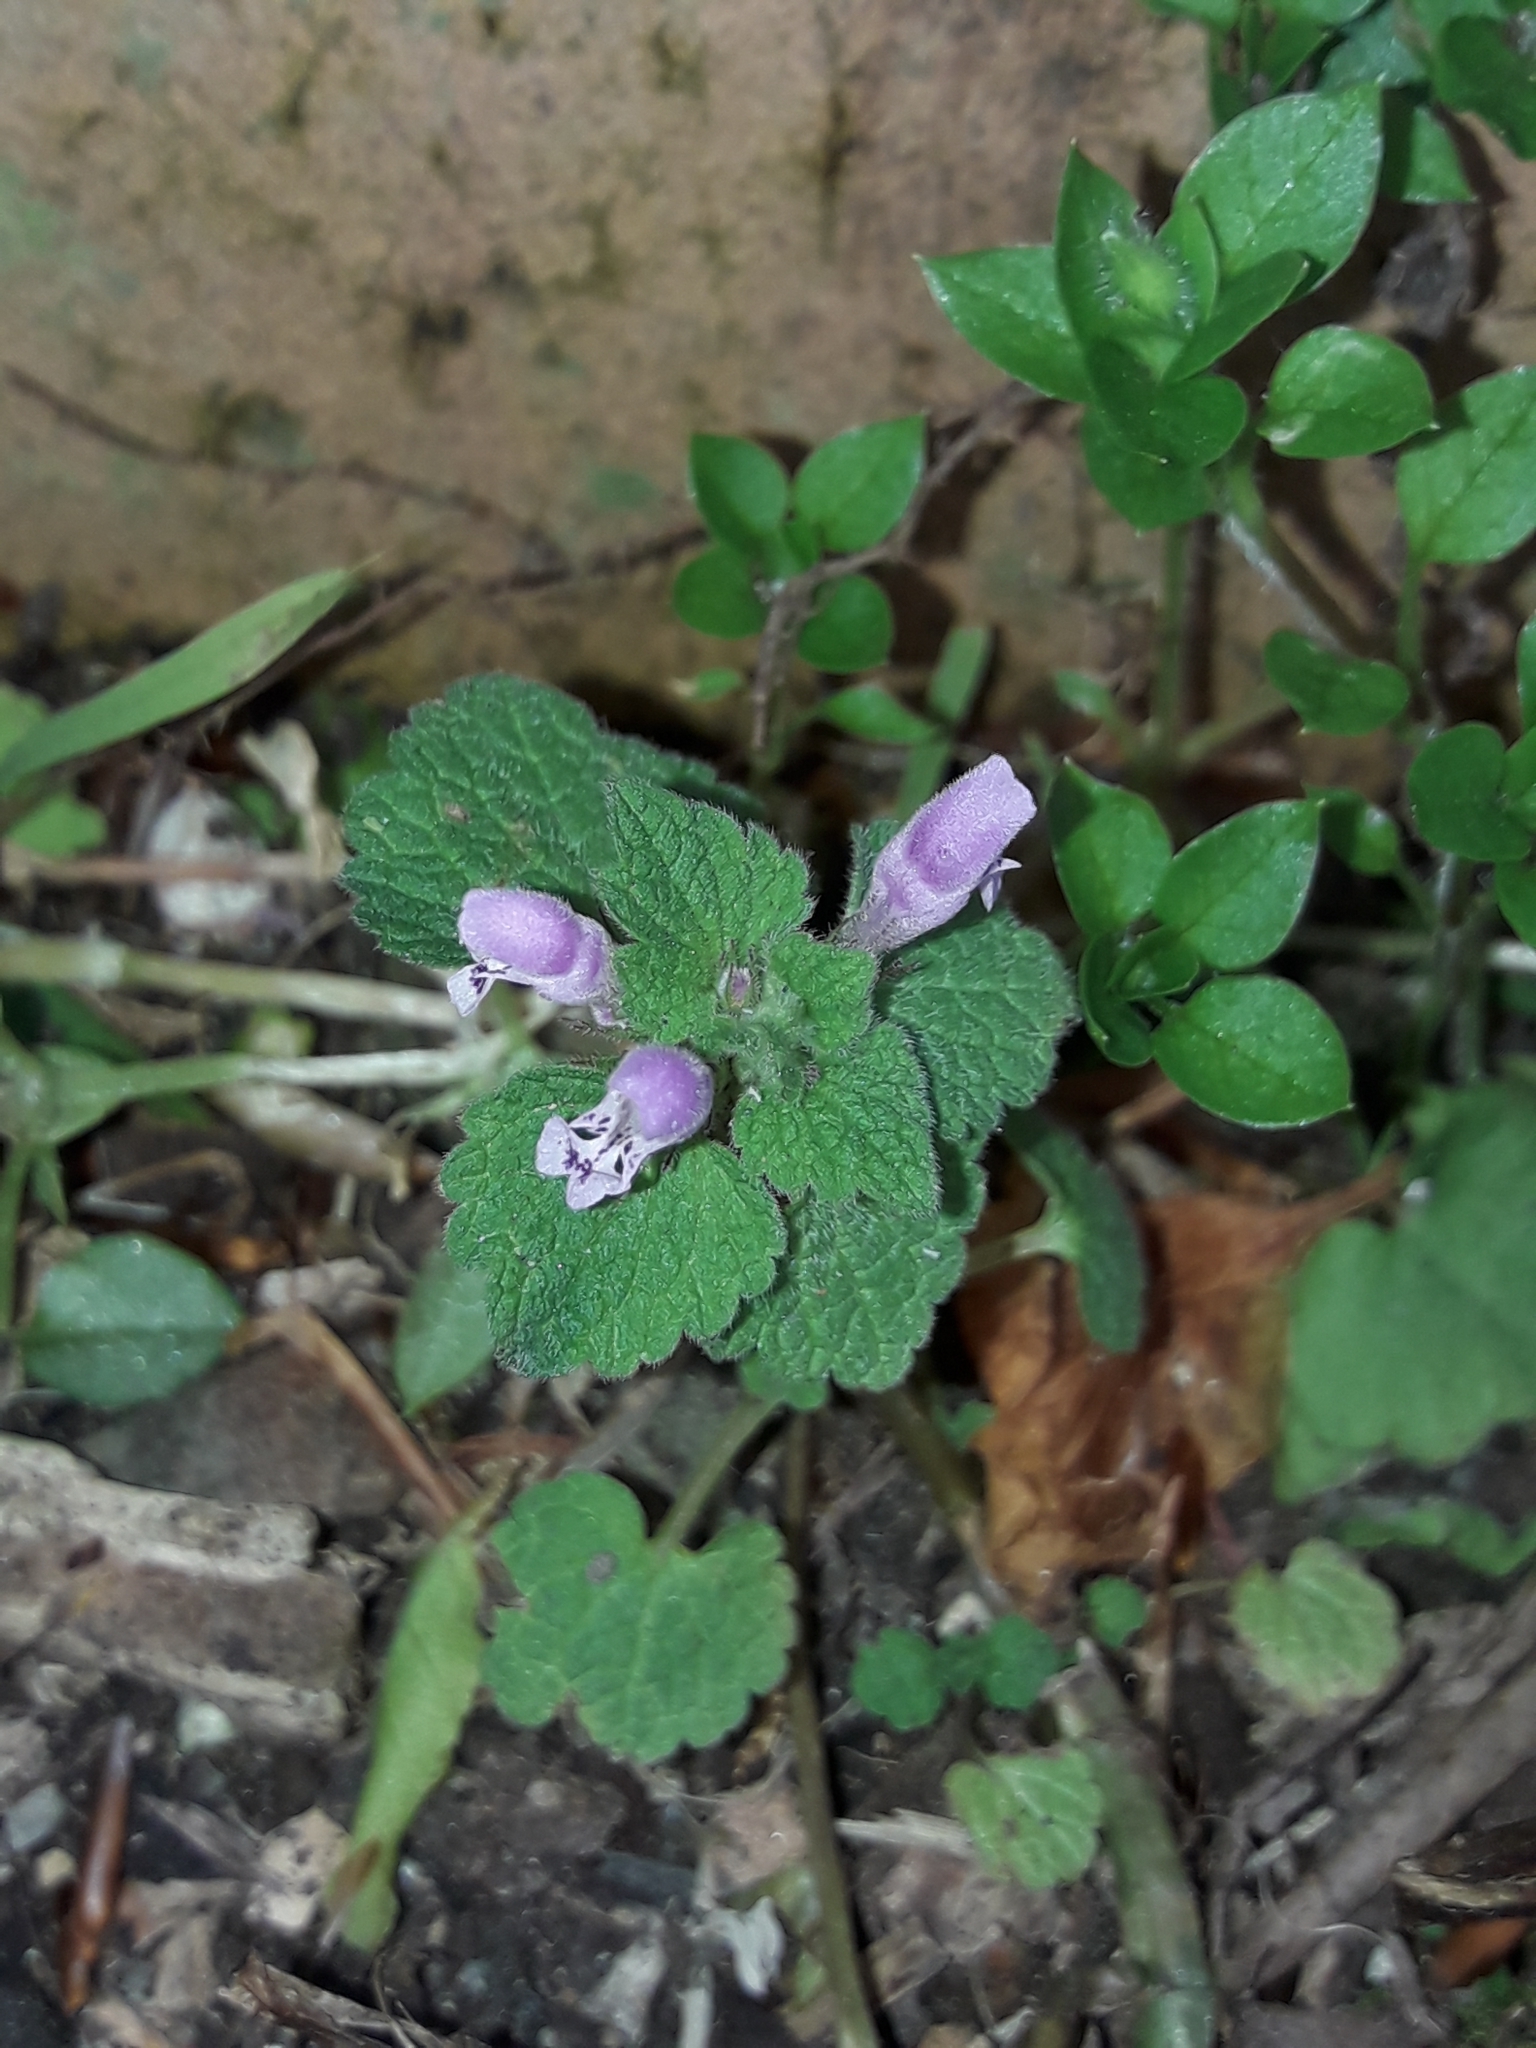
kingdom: Plantae
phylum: Tracheophyta
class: Magnoliopsida
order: Lamiales
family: Lamiaceae
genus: Lamium
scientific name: Lamium purpureum
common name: Red dead-nettle
